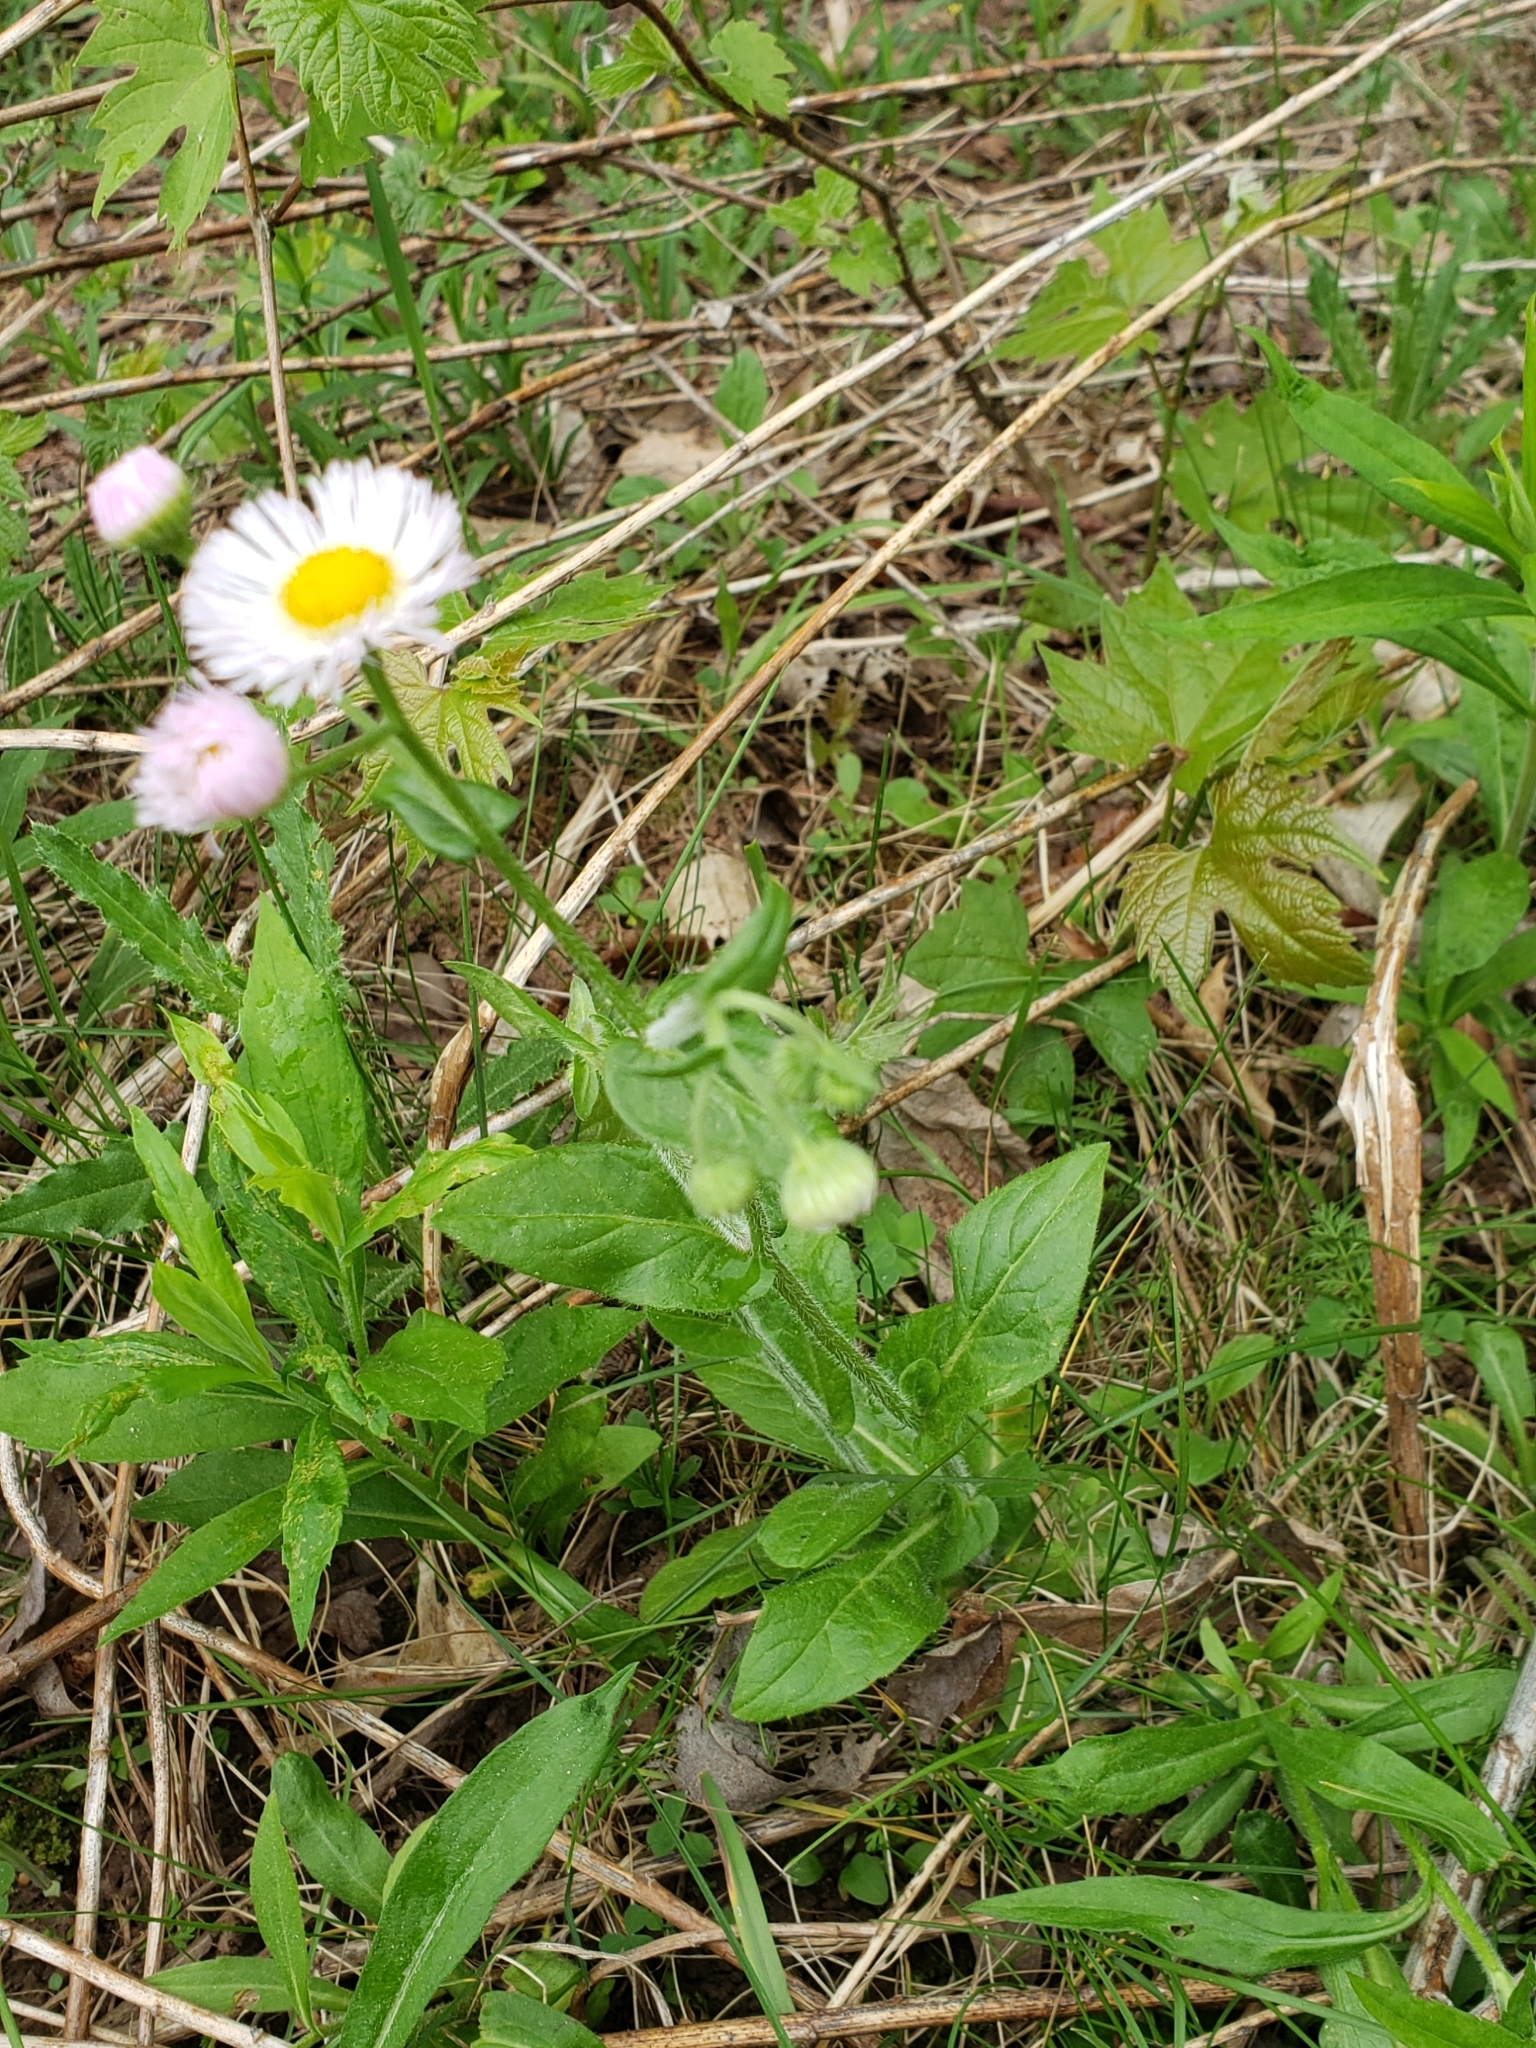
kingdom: Plantae
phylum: Tracheophyta
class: Magnoliopsida
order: Asterales
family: Asteraceae
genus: Erigeron
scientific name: Erigeron philadelphicus
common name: Robin's-plantain
